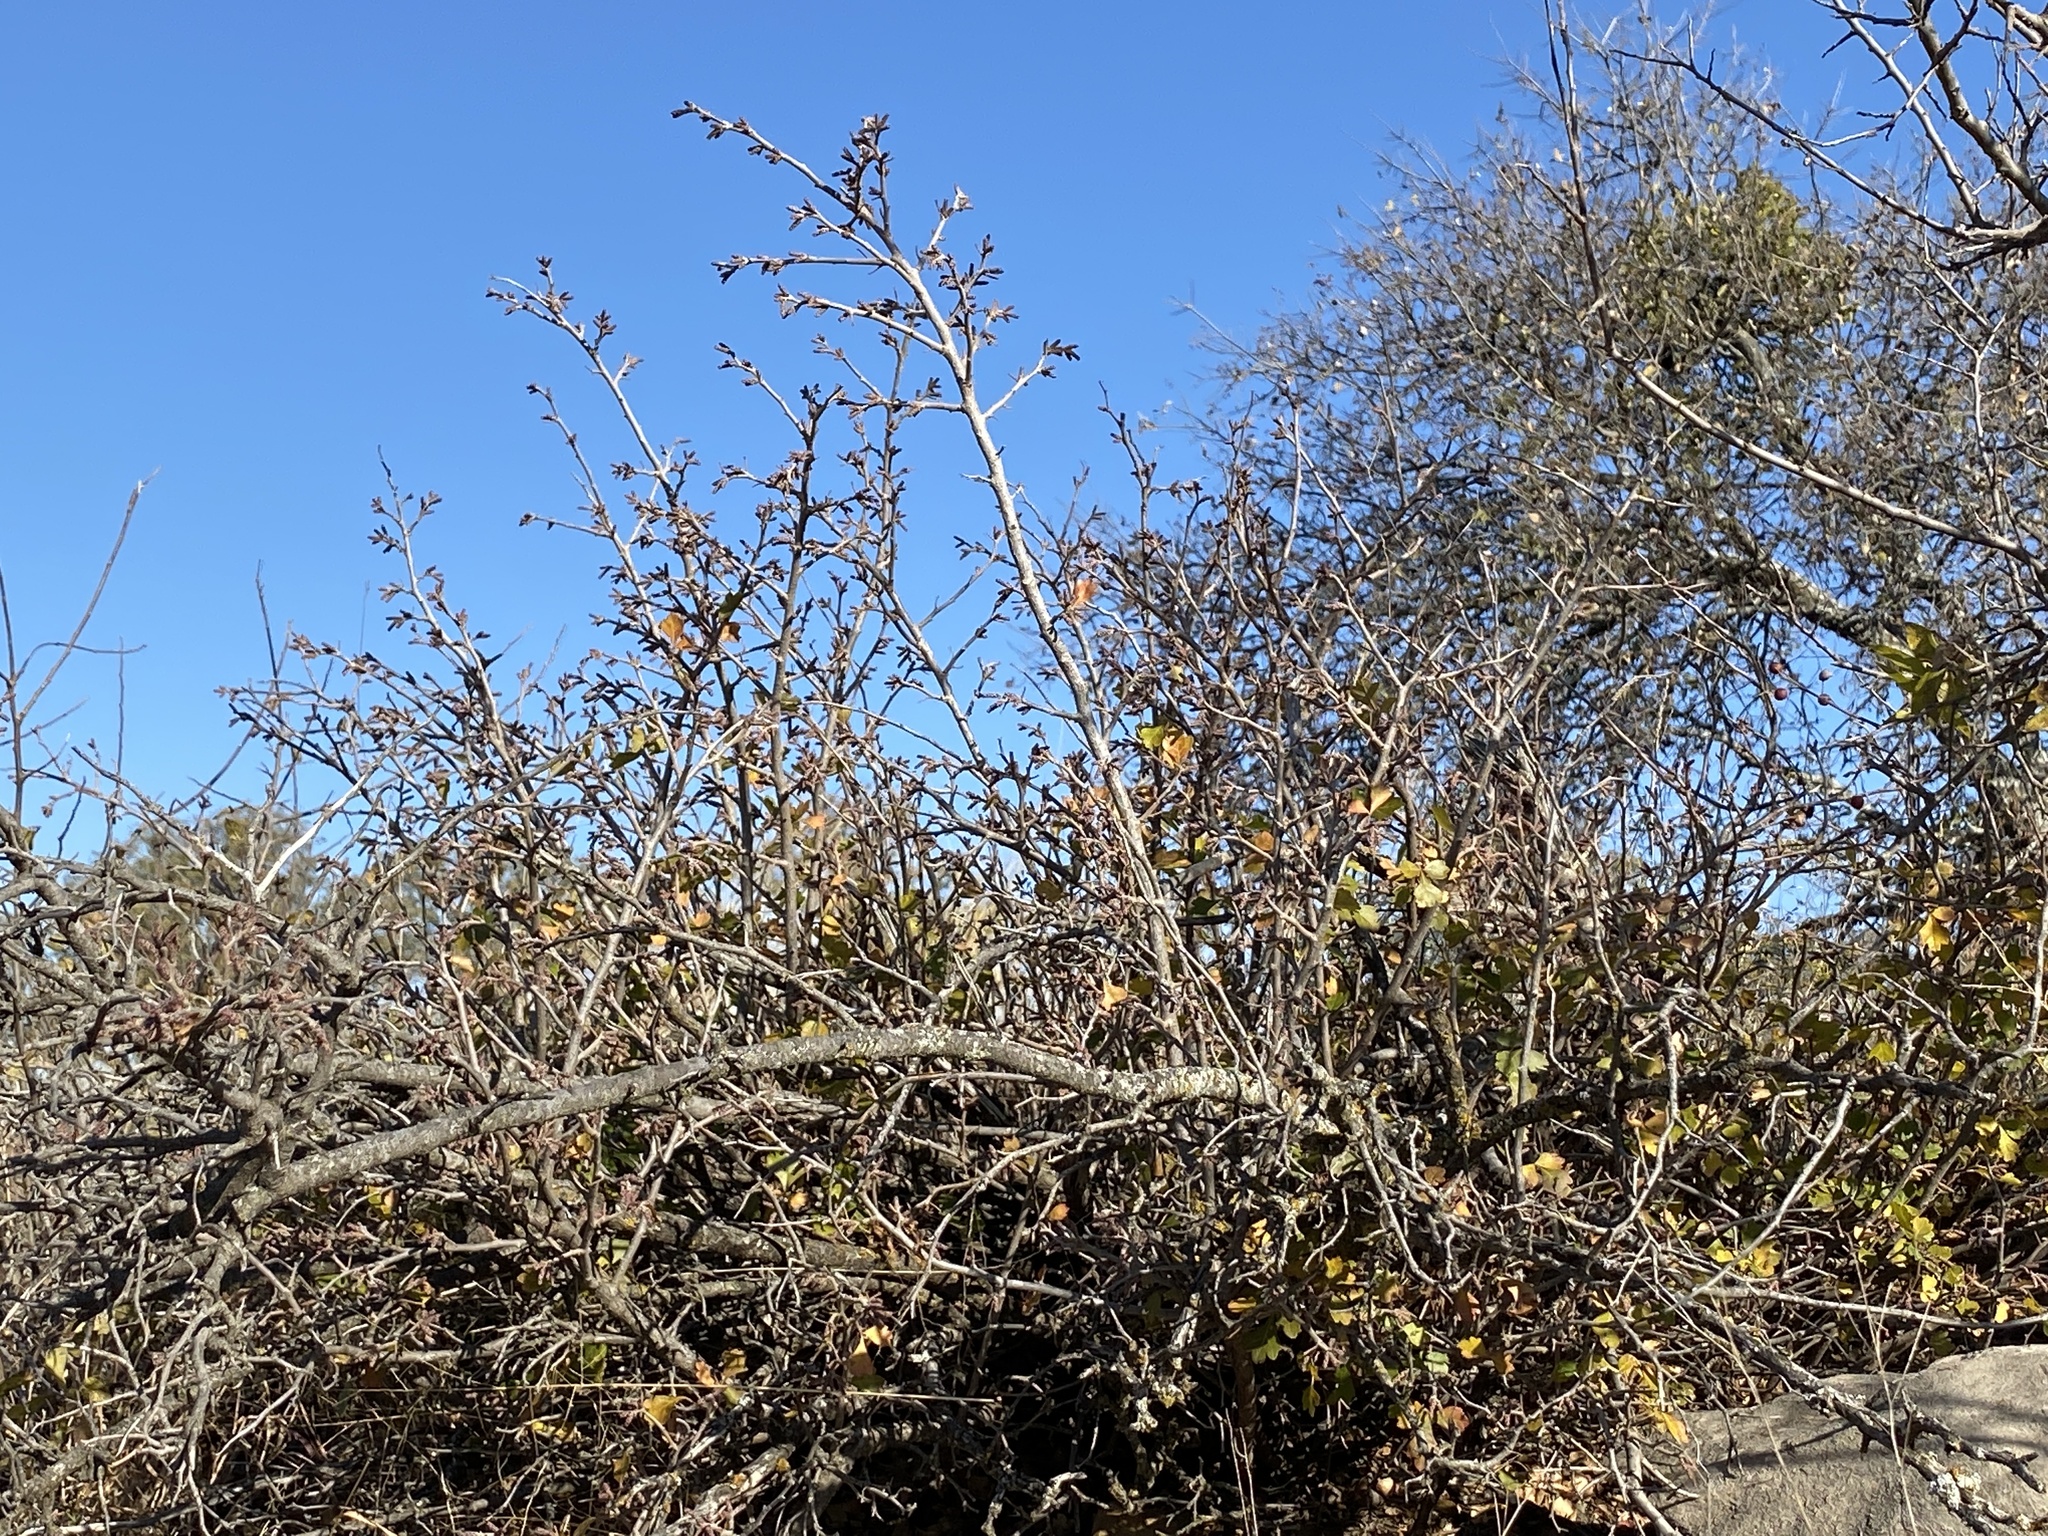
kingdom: Plantae
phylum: Tracheophyta
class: Magnoliopsida
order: Sapindales
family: Anacardiaceae
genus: Rhus
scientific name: Rhus aromatica
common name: Aromatic sumac
